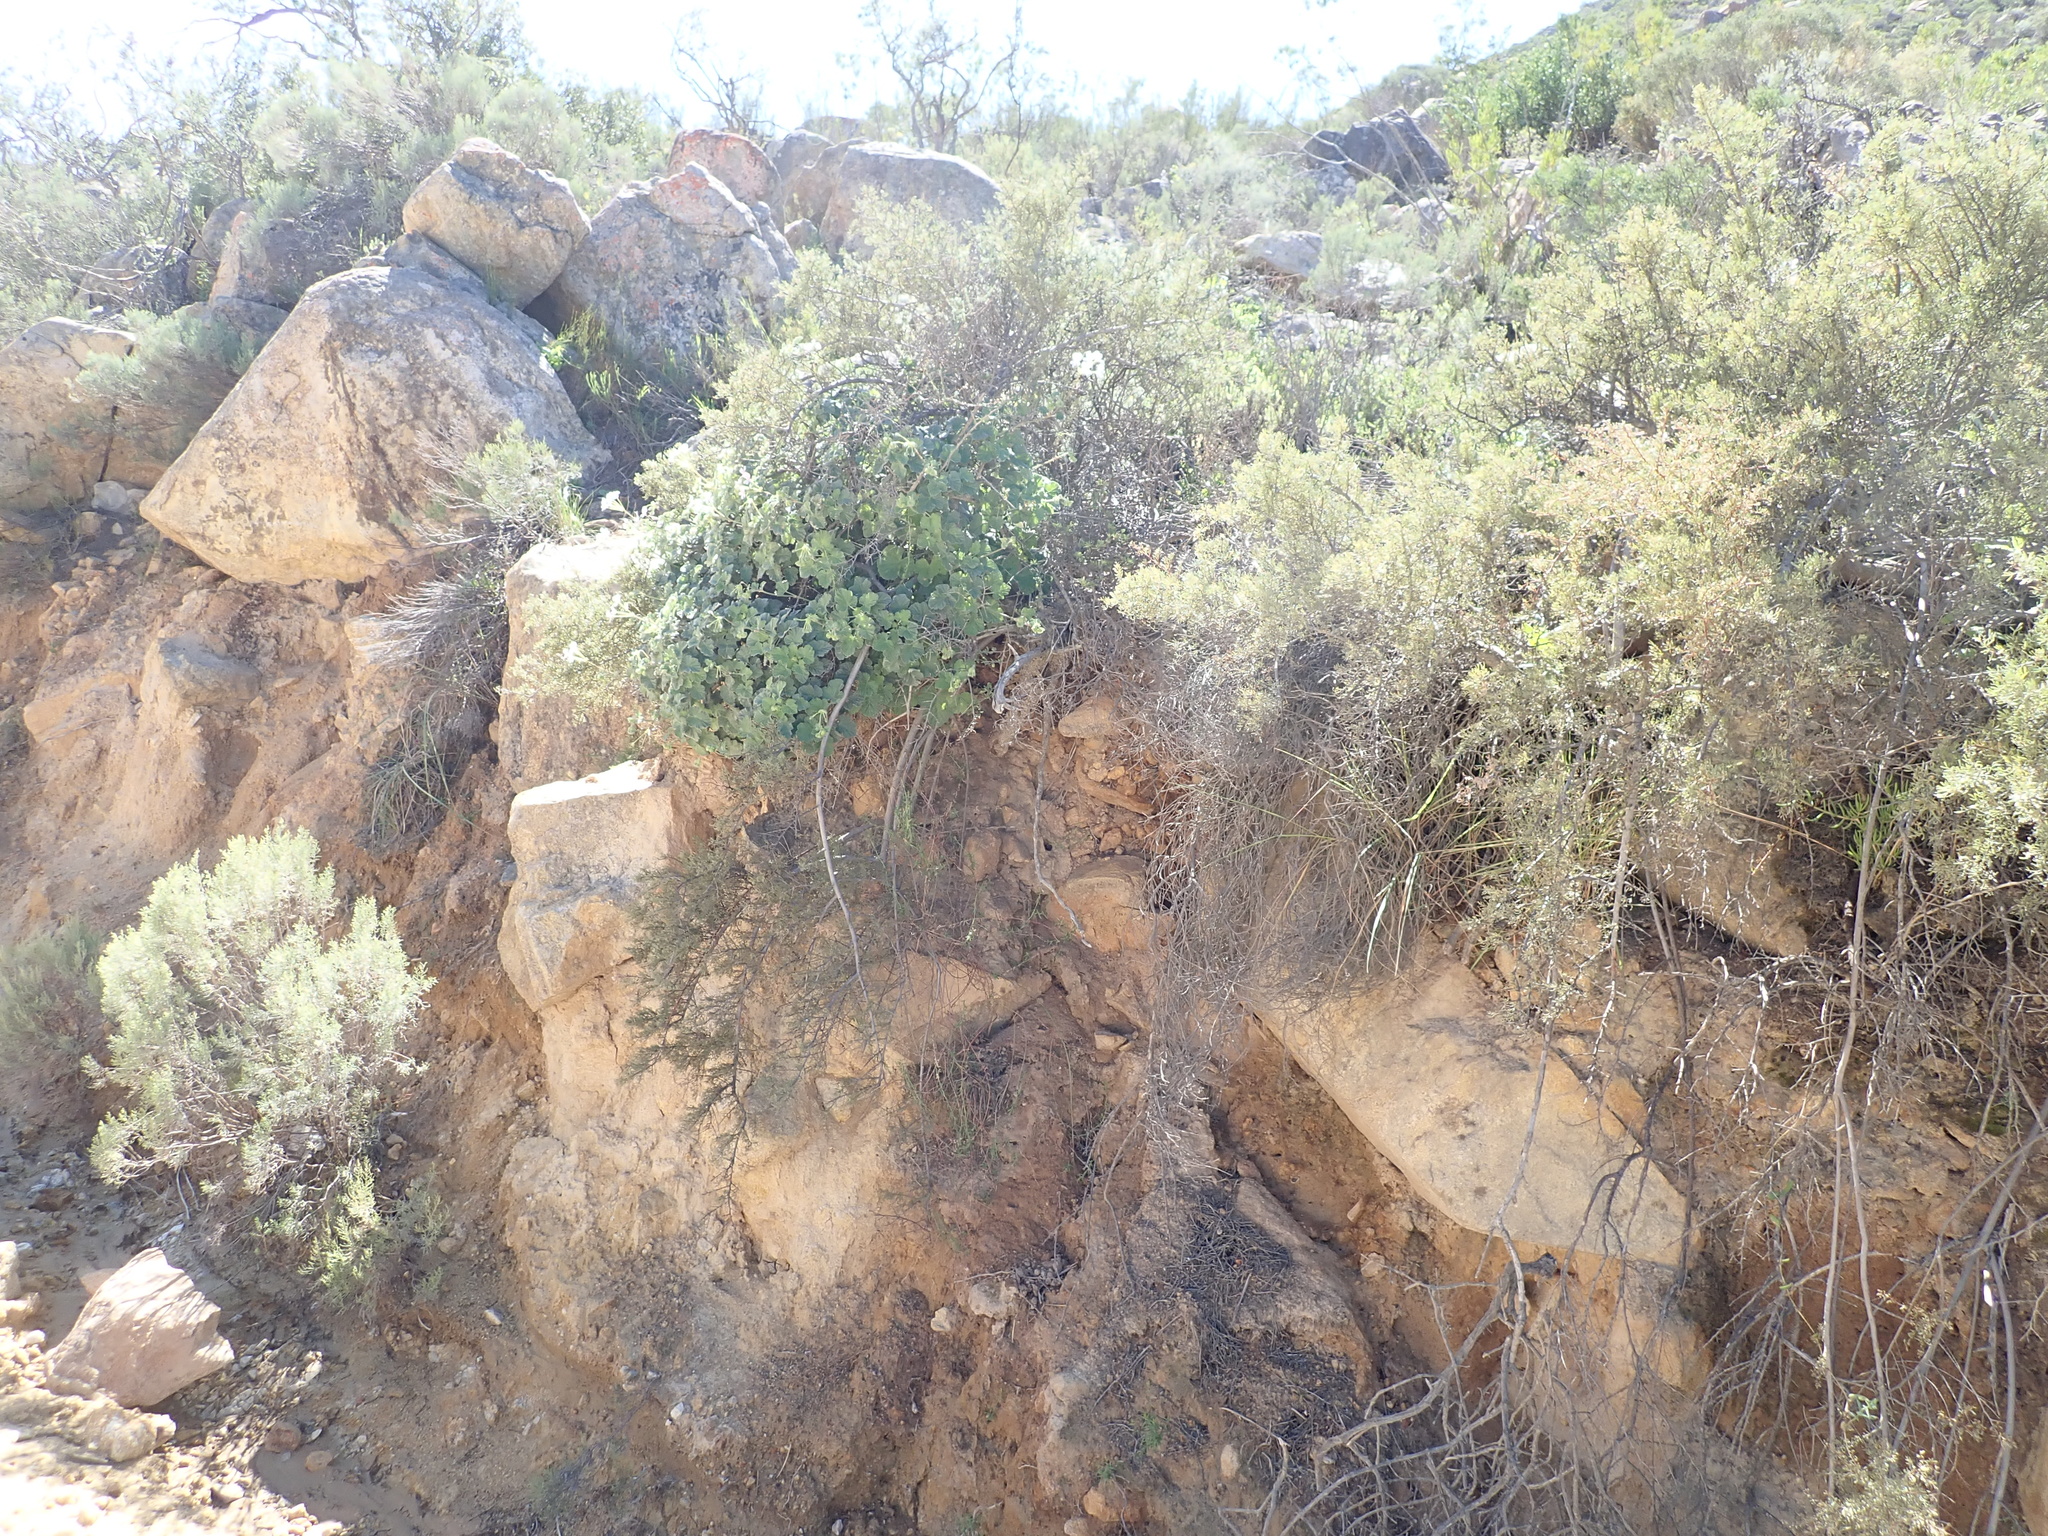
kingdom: Plantae
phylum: Tracheophyta
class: Magnoliopsida
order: Geraniales
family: Geraniaceae
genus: Pelargonium
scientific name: Pelargonium echinatum
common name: Cactus geranium
